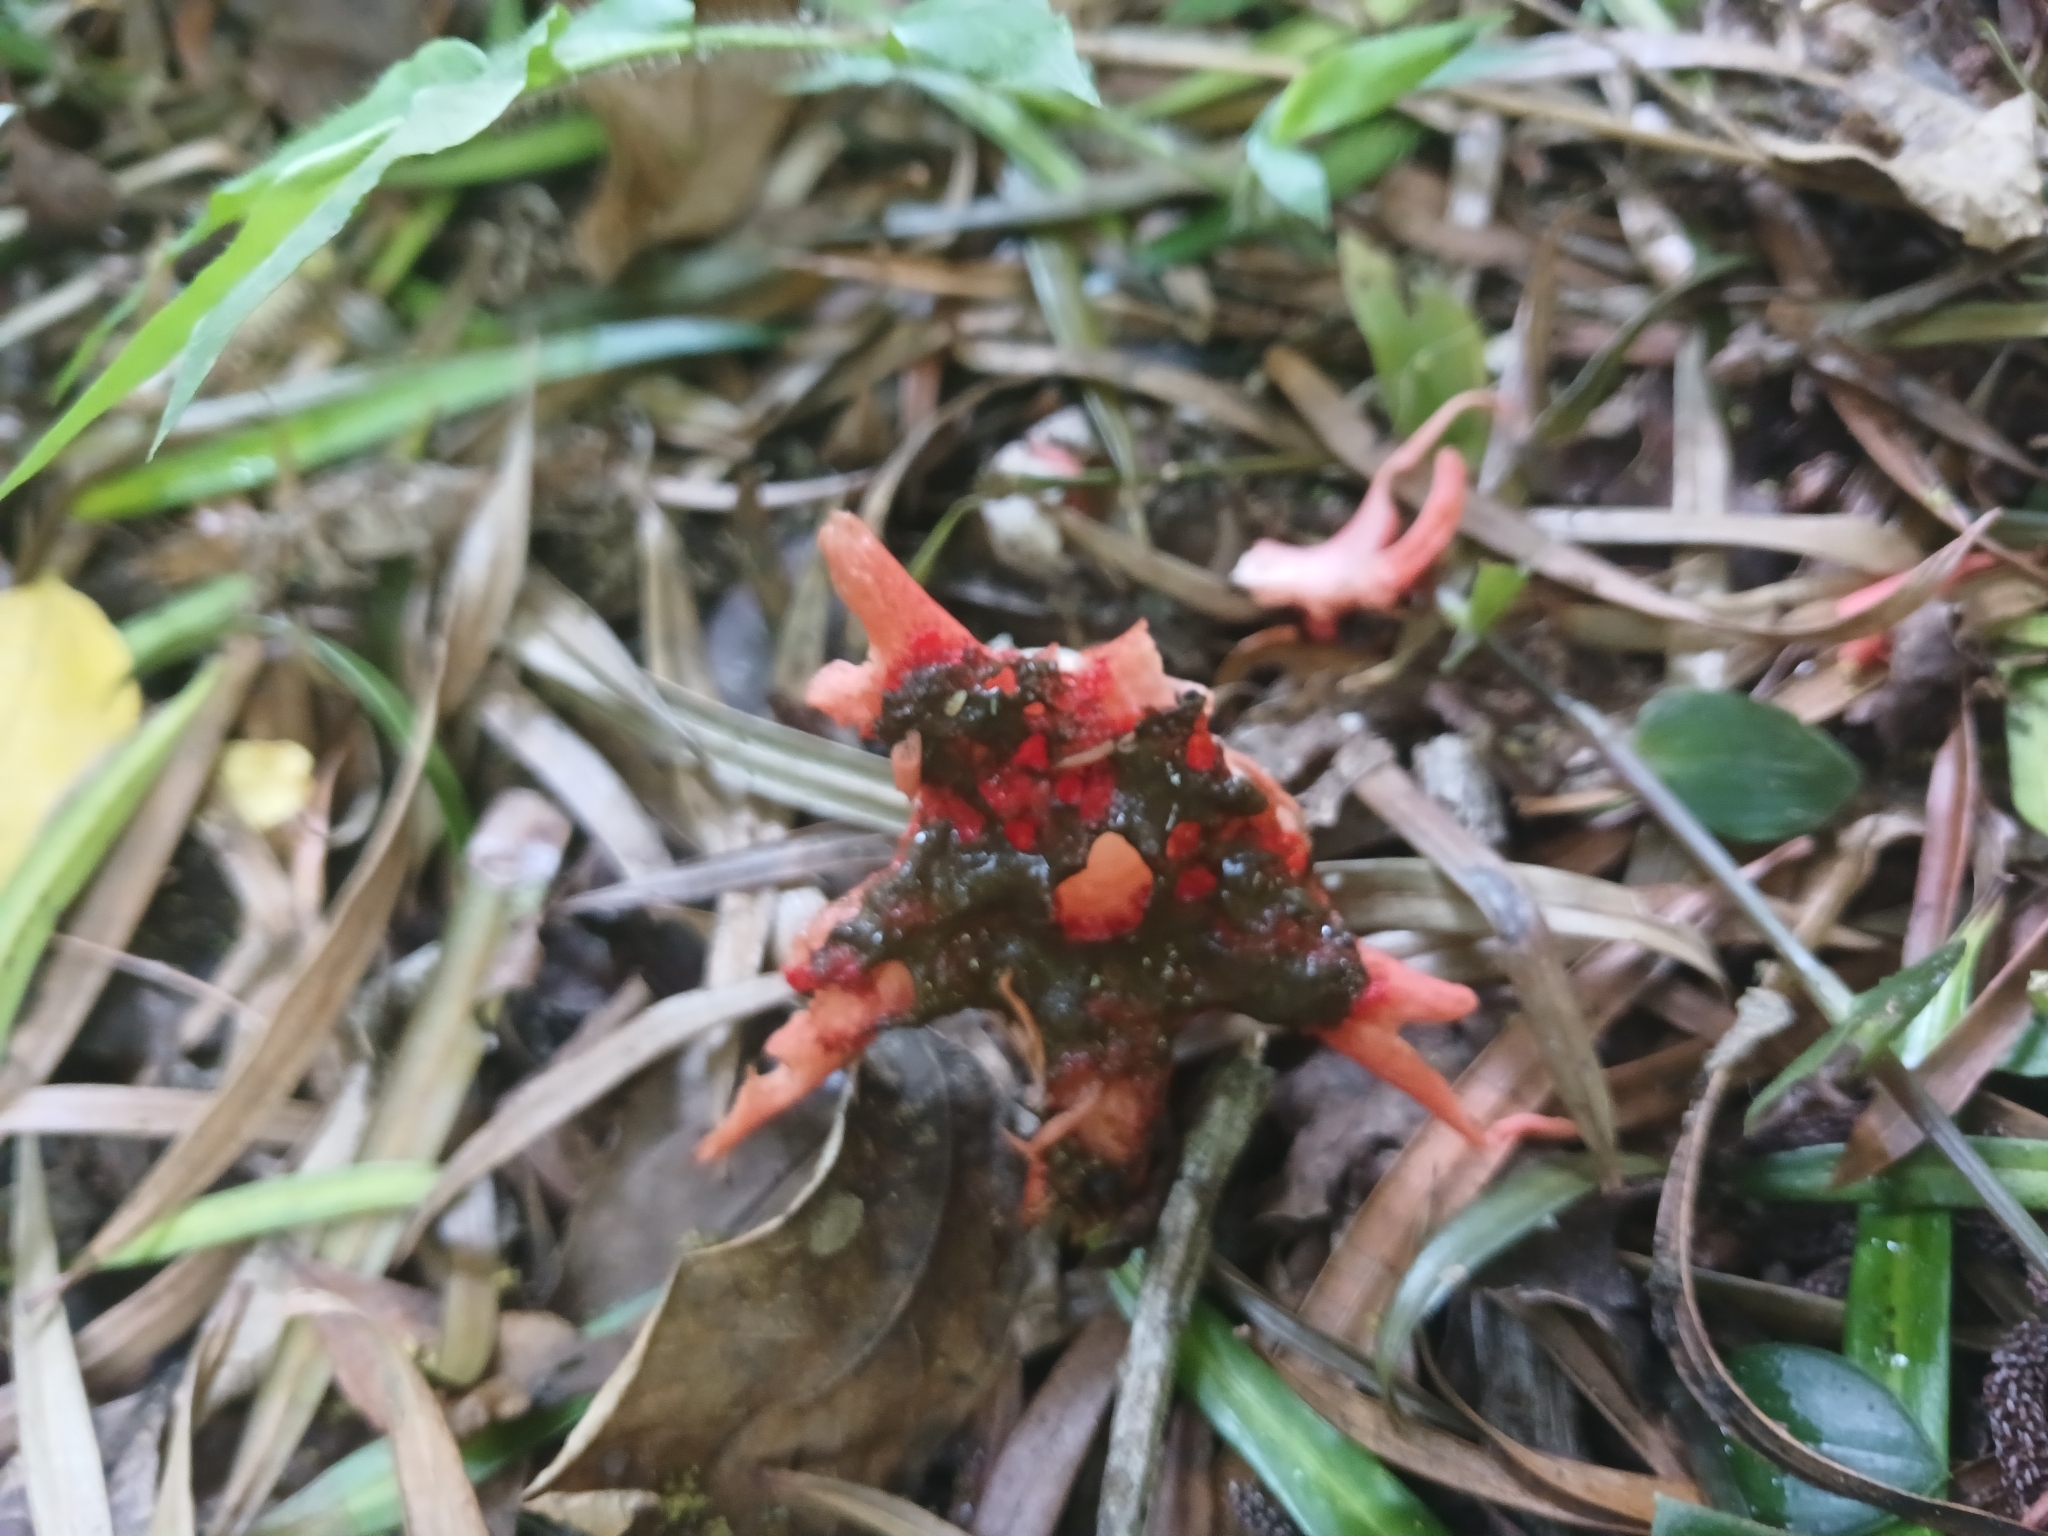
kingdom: Fungi
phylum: Basidiomycota
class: Agaricomycetes
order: Phallales
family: Phallaceae
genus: Aseroe
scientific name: Aseroe rubra
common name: Starfish fungus
